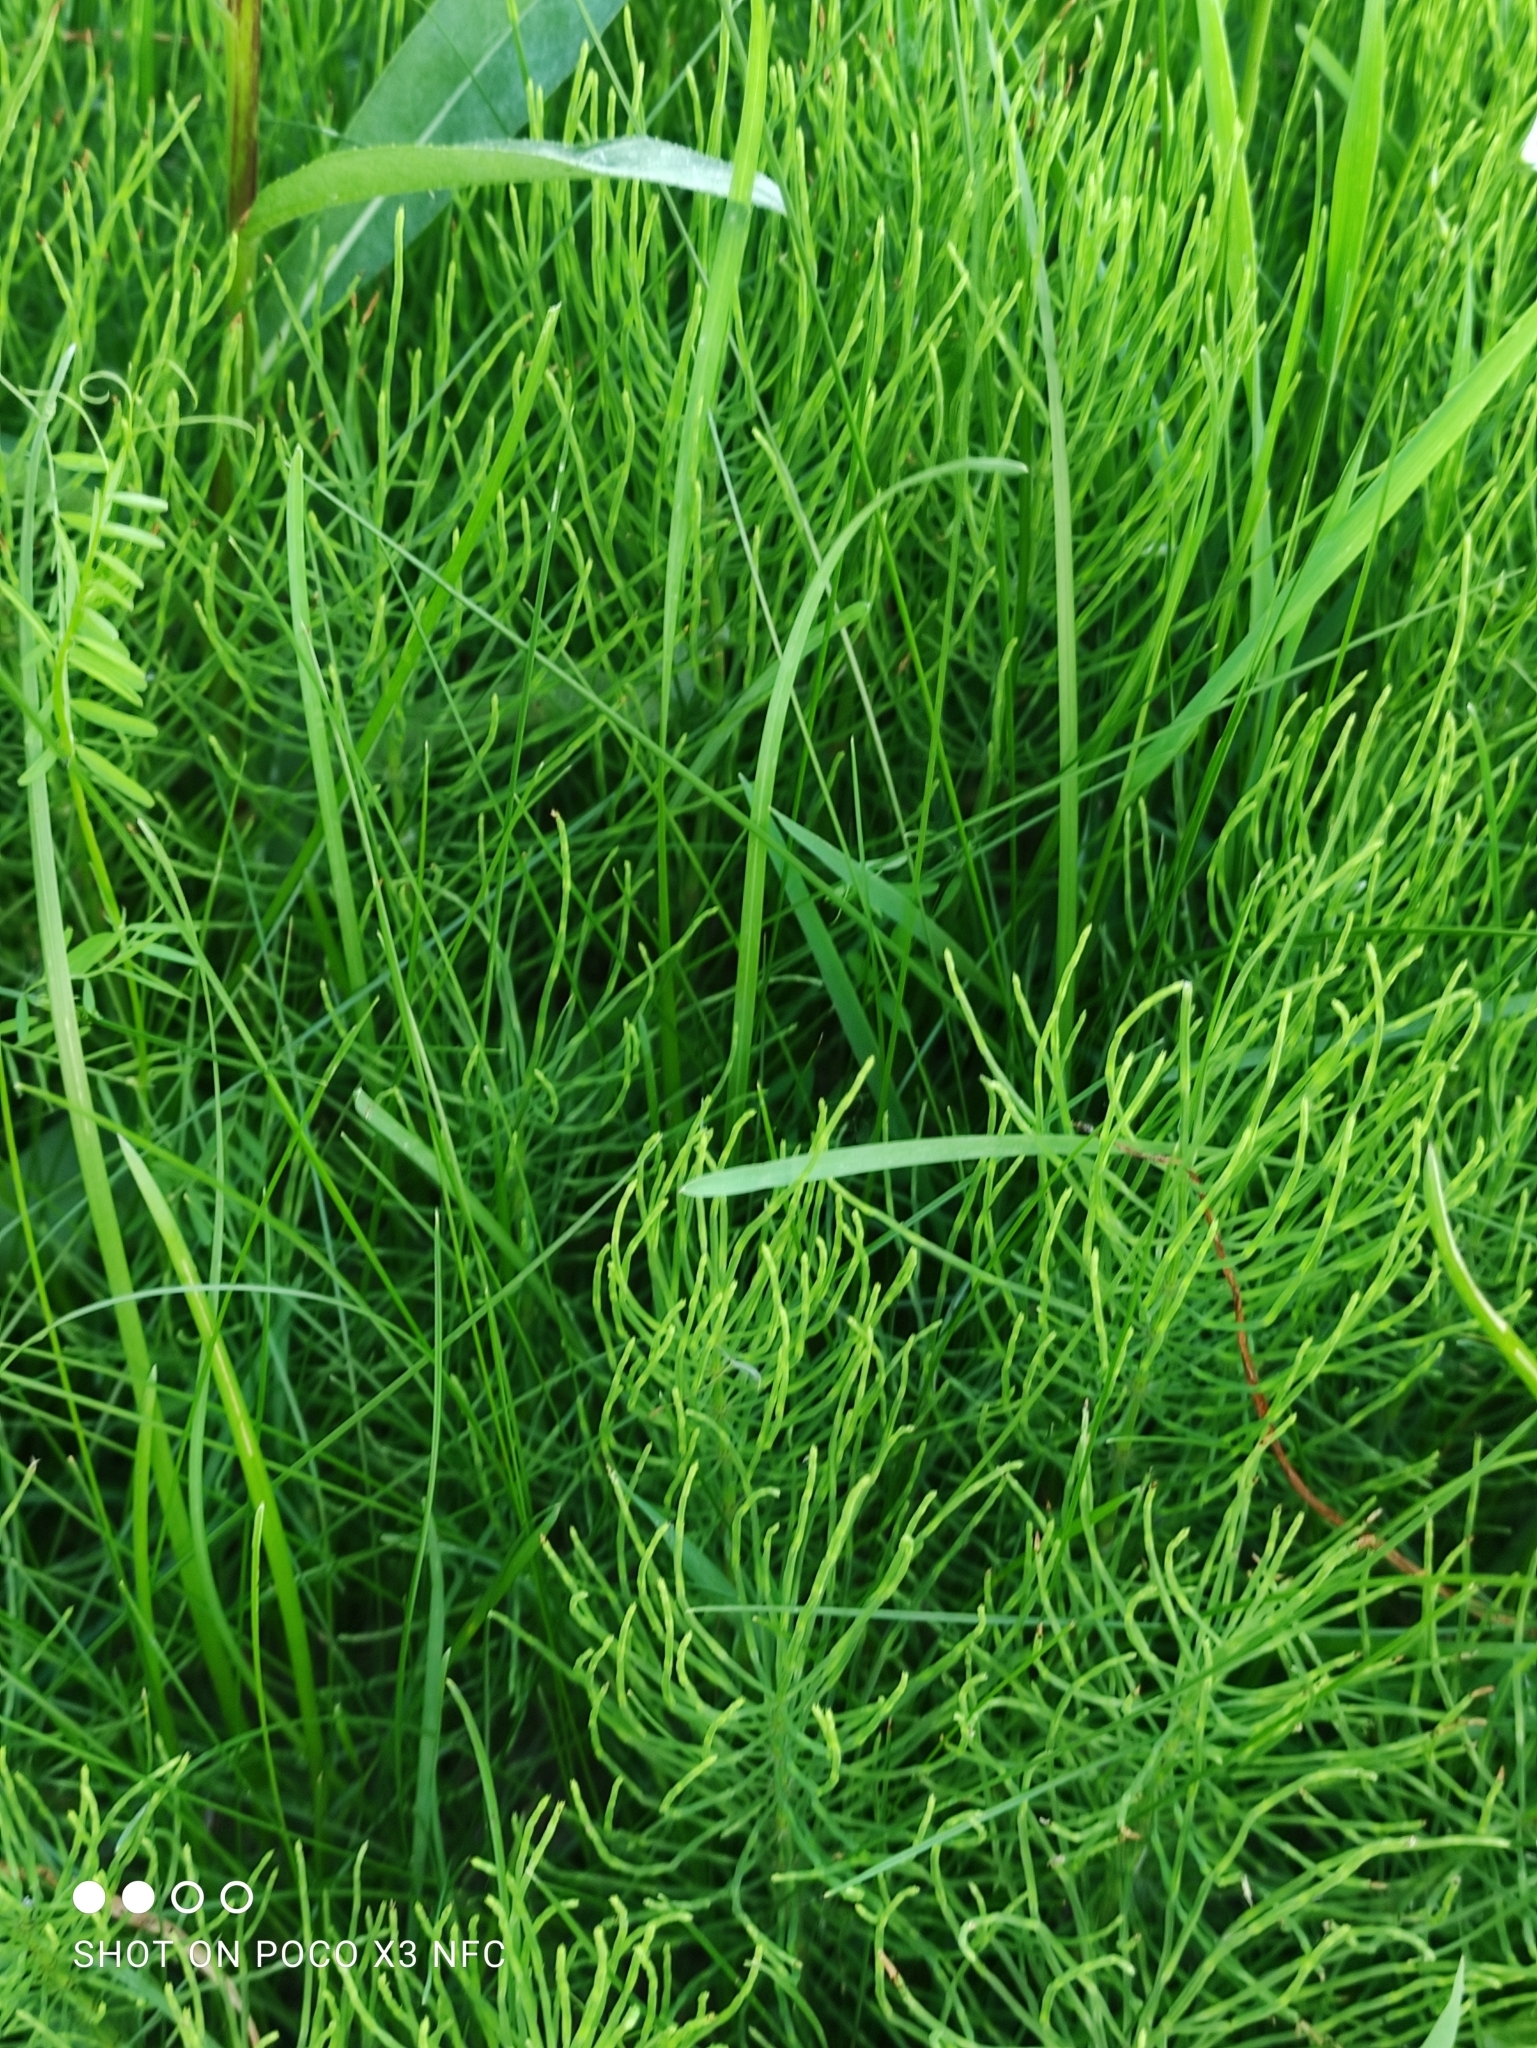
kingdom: Plantae
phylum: Tracheophyta
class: Polypodiopsida
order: Equisetales
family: Equisetaceae
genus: Equisetum
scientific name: Equisetum arvense
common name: Field horsetail
